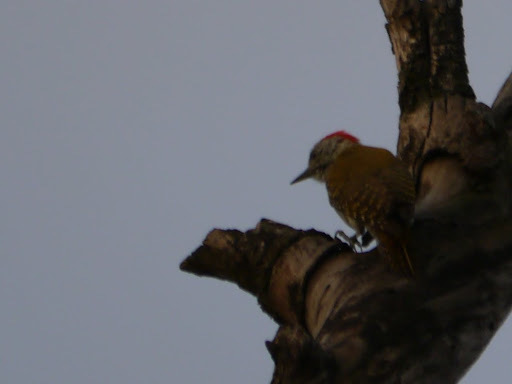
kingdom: Animalia
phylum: Chordata
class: Aves
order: Piciformes
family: Picidae
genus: Dendropicos
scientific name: Dendropicos fuscescens
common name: Cardinal woodpecker
